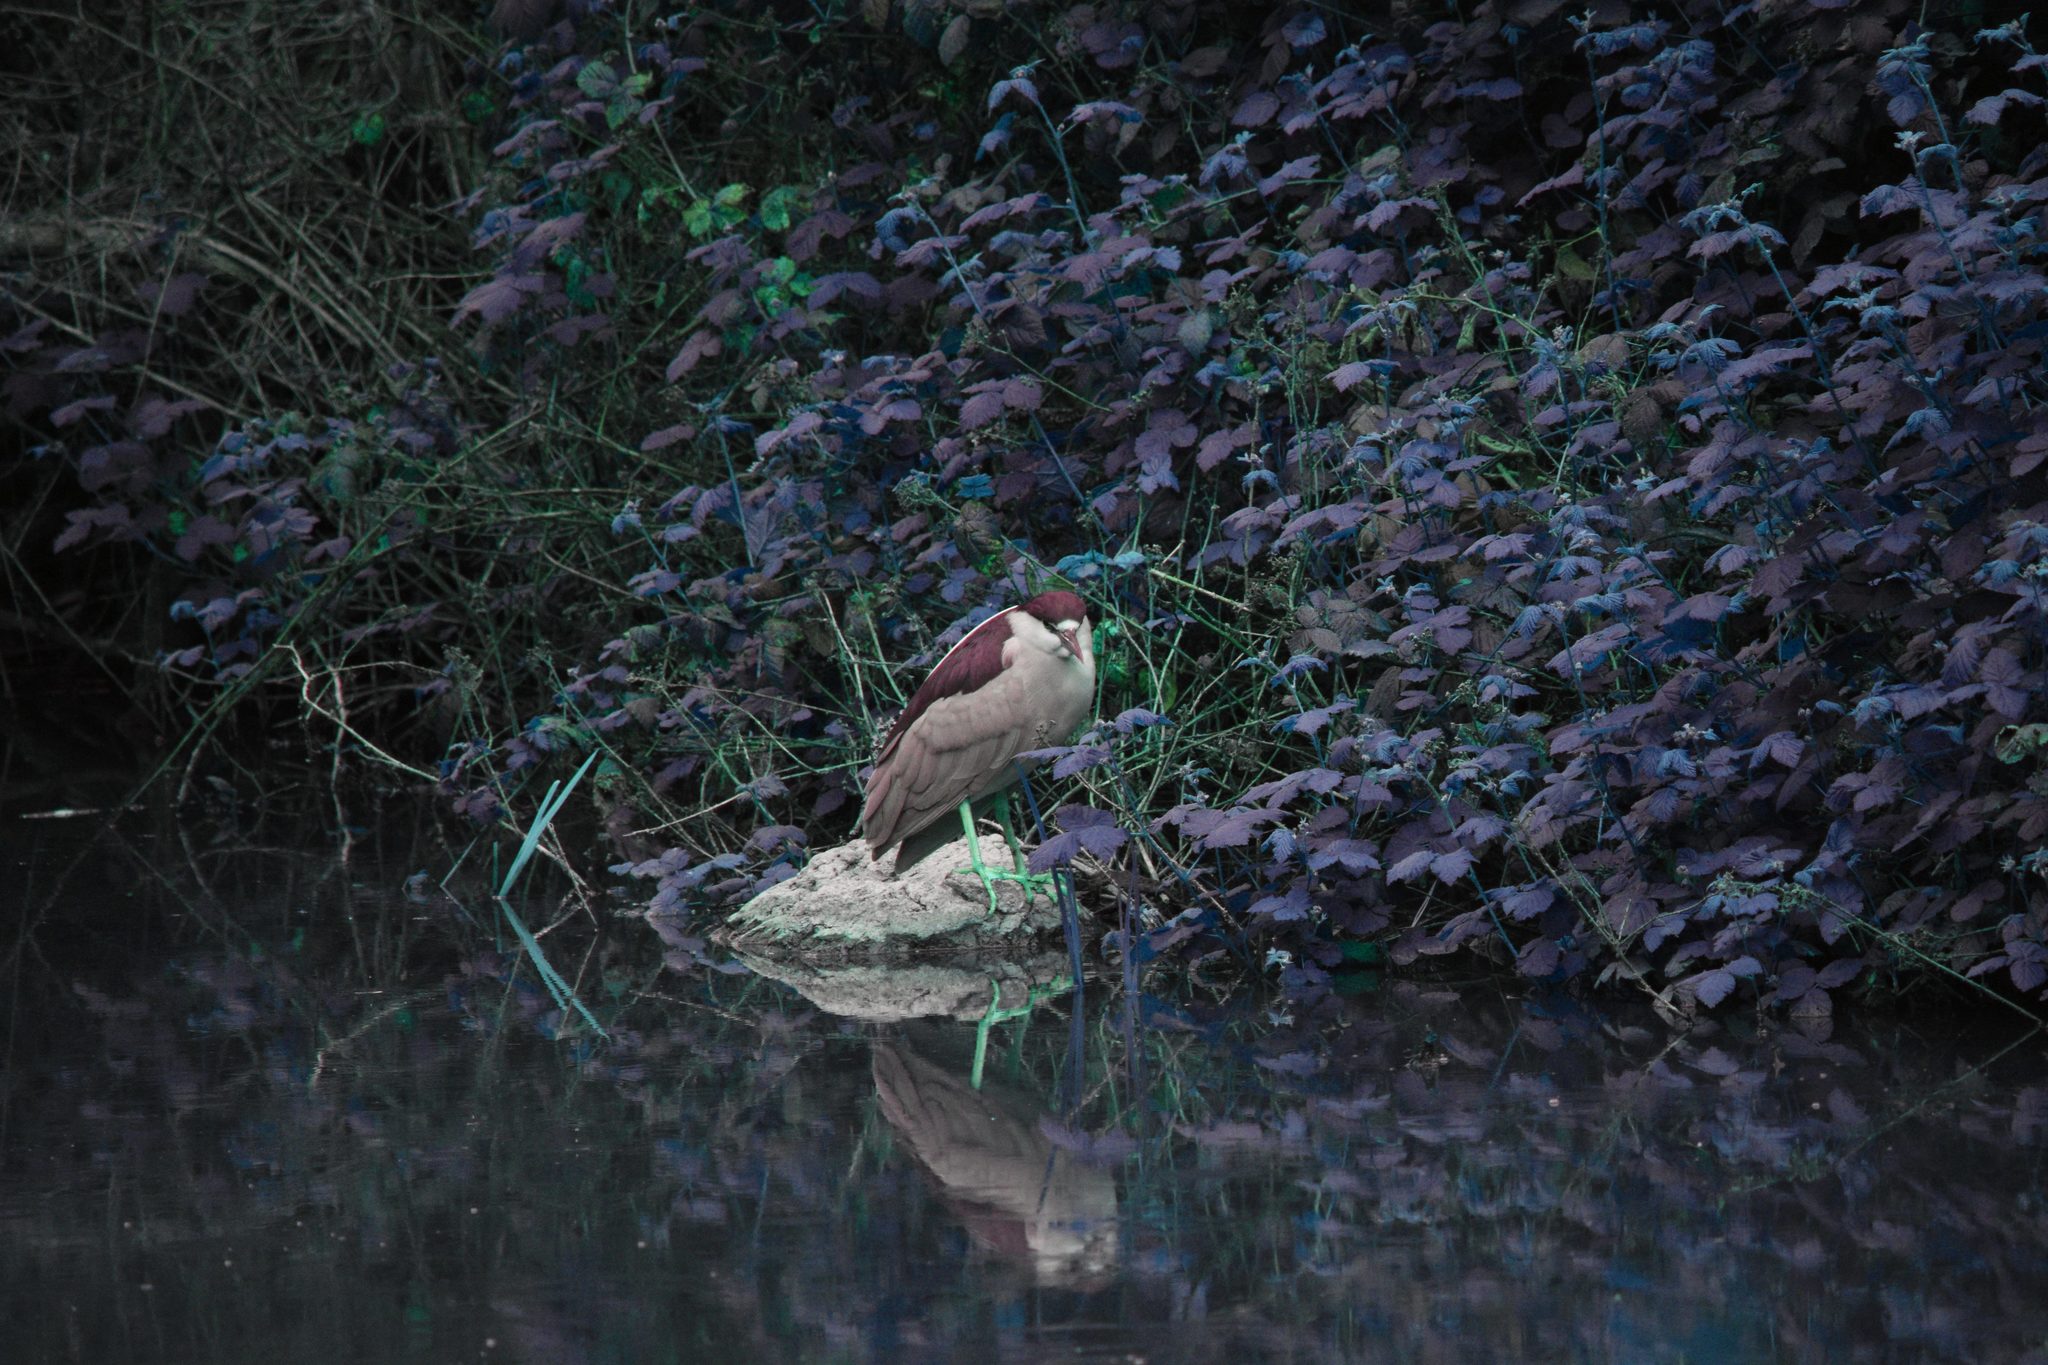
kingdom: Animalia
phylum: Chordata
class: Aves
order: Pelecaniformes
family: Ardeidae
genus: Nycticorax
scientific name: Nycticorax nycticorax
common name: Black-crowned night heron
